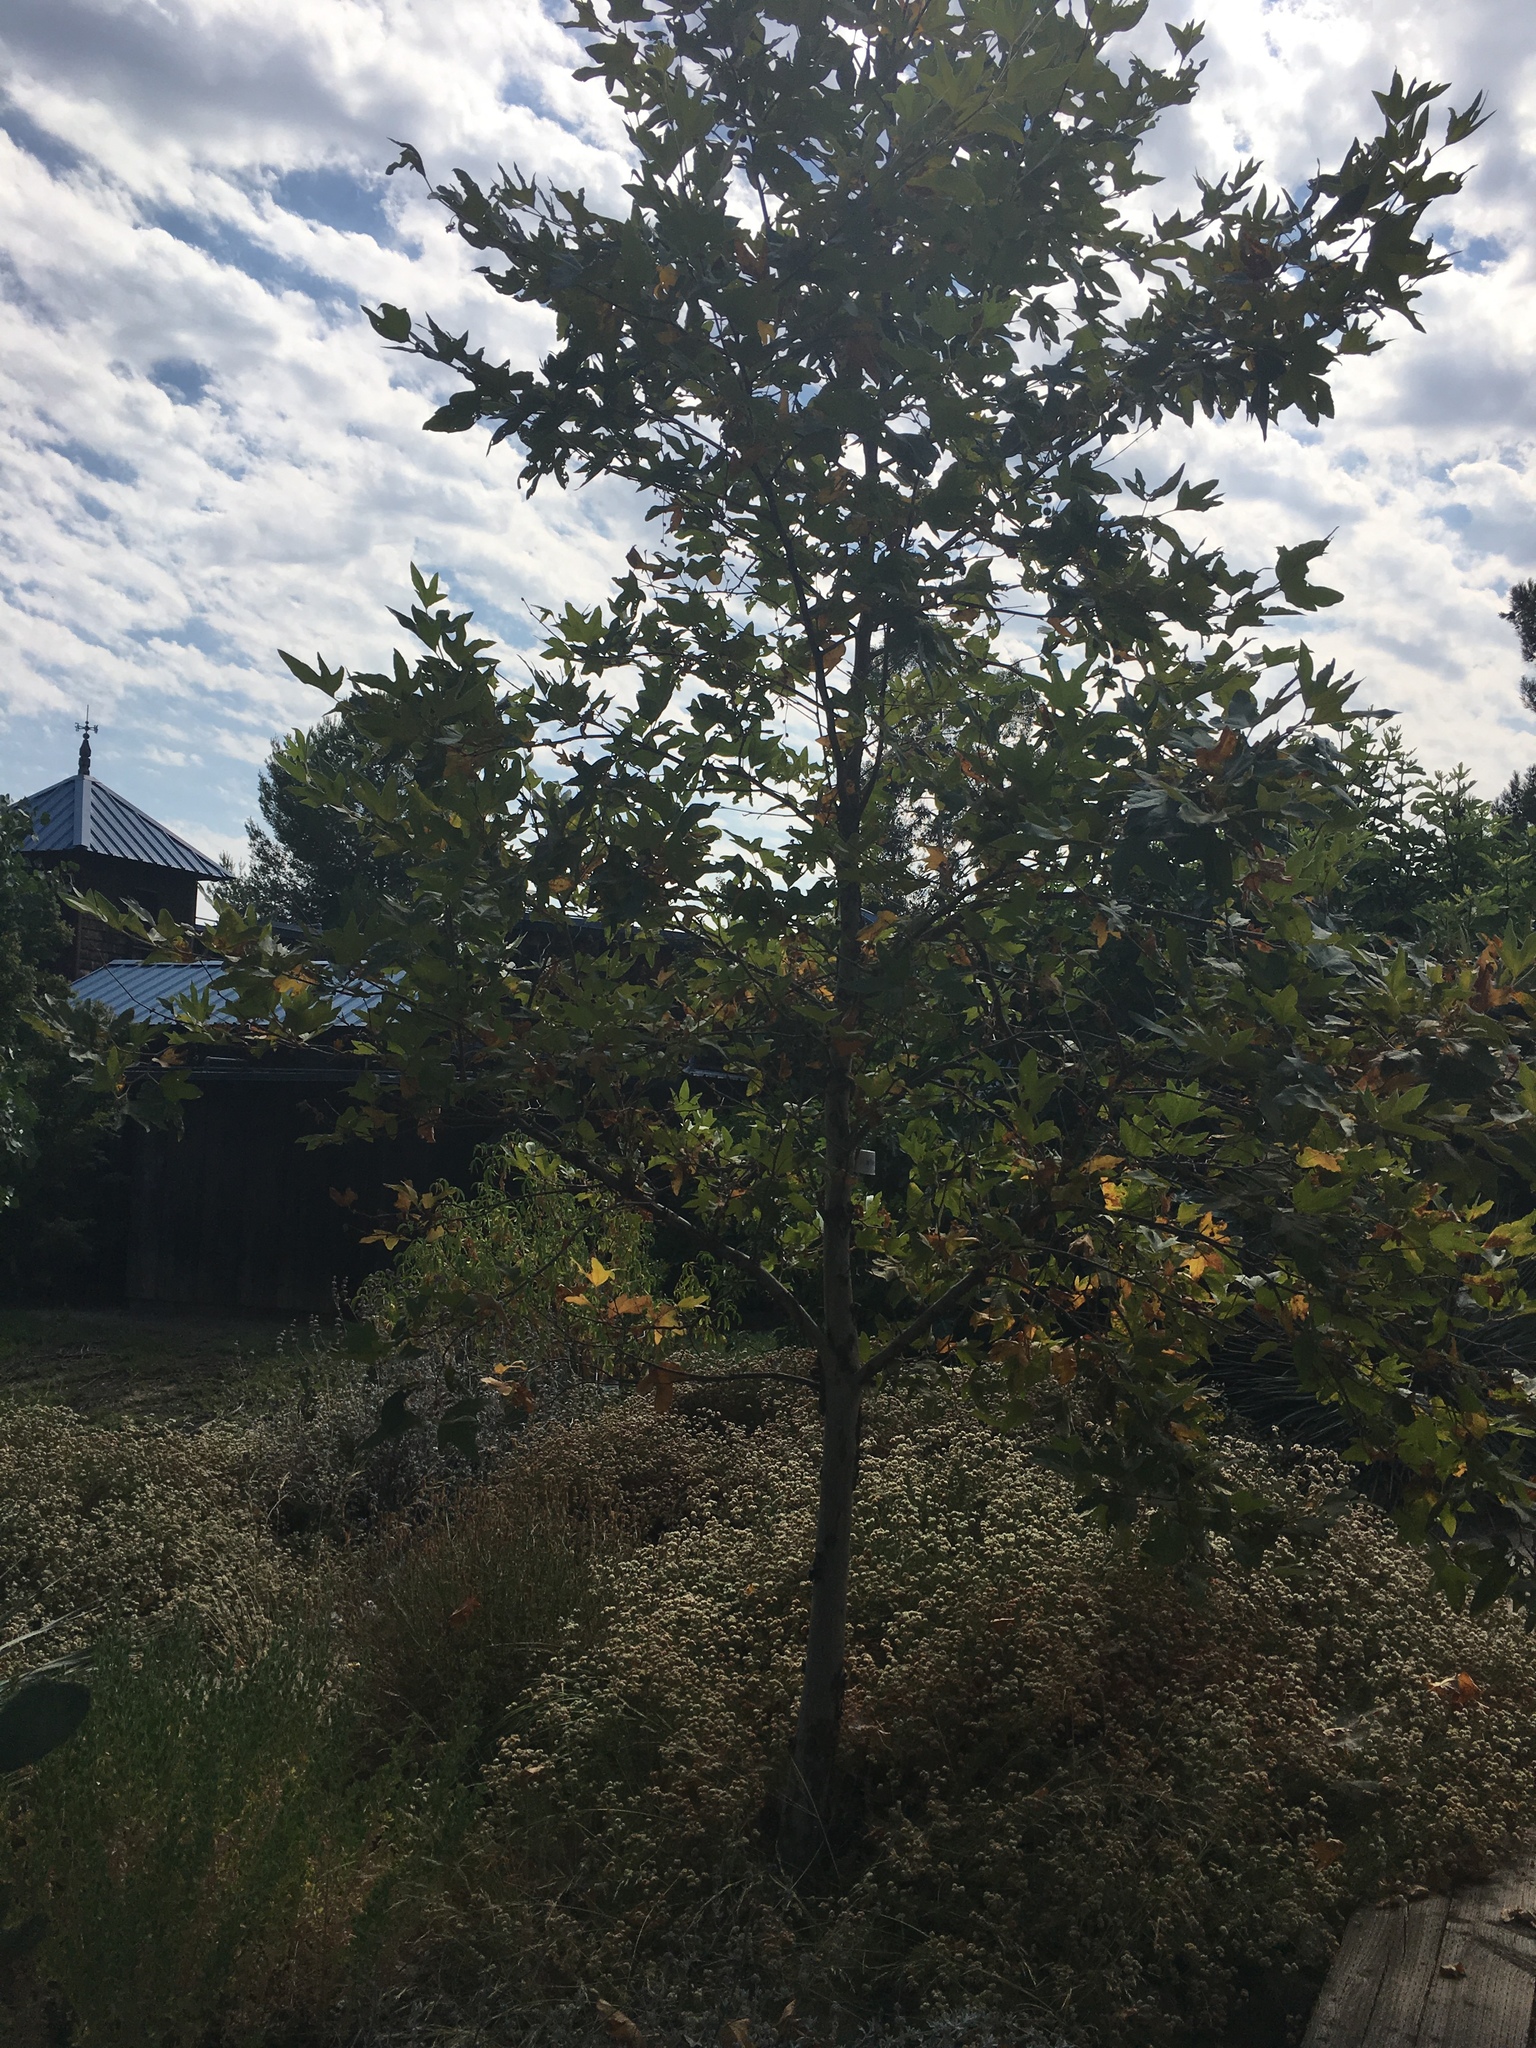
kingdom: Plantae
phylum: Tracheophyta
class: Magnoliopsida
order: Proteales
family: Platanaceae
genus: Platanus
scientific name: Platanus racemosa
